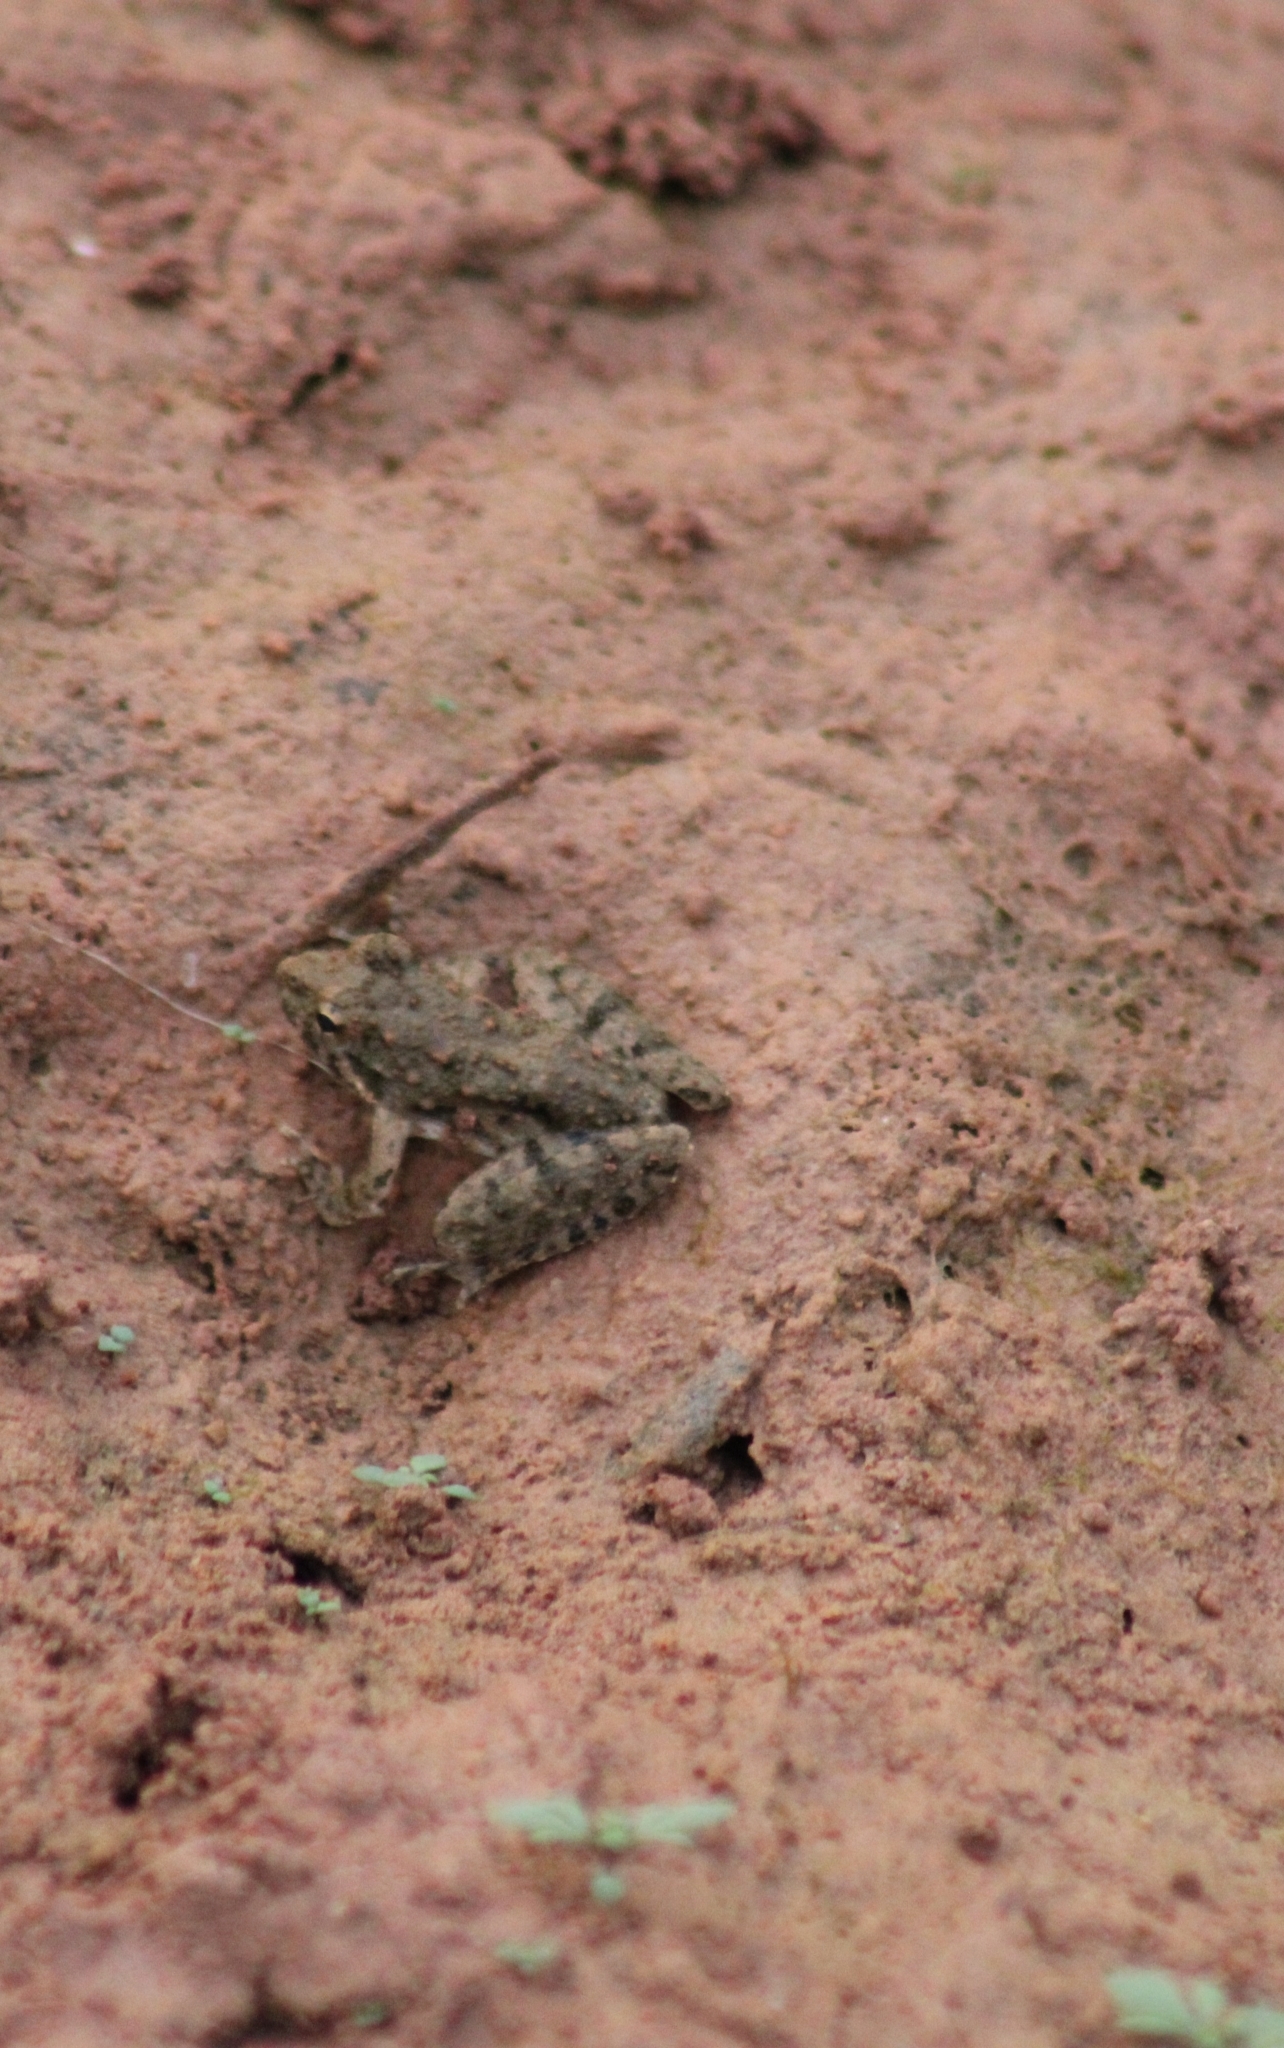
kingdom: Animalia
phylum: Chordata
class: Amphibia
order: Anura
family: Hylidae
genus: Acris
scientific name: Acris blanchardi
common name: Blanchard's cricket frog
